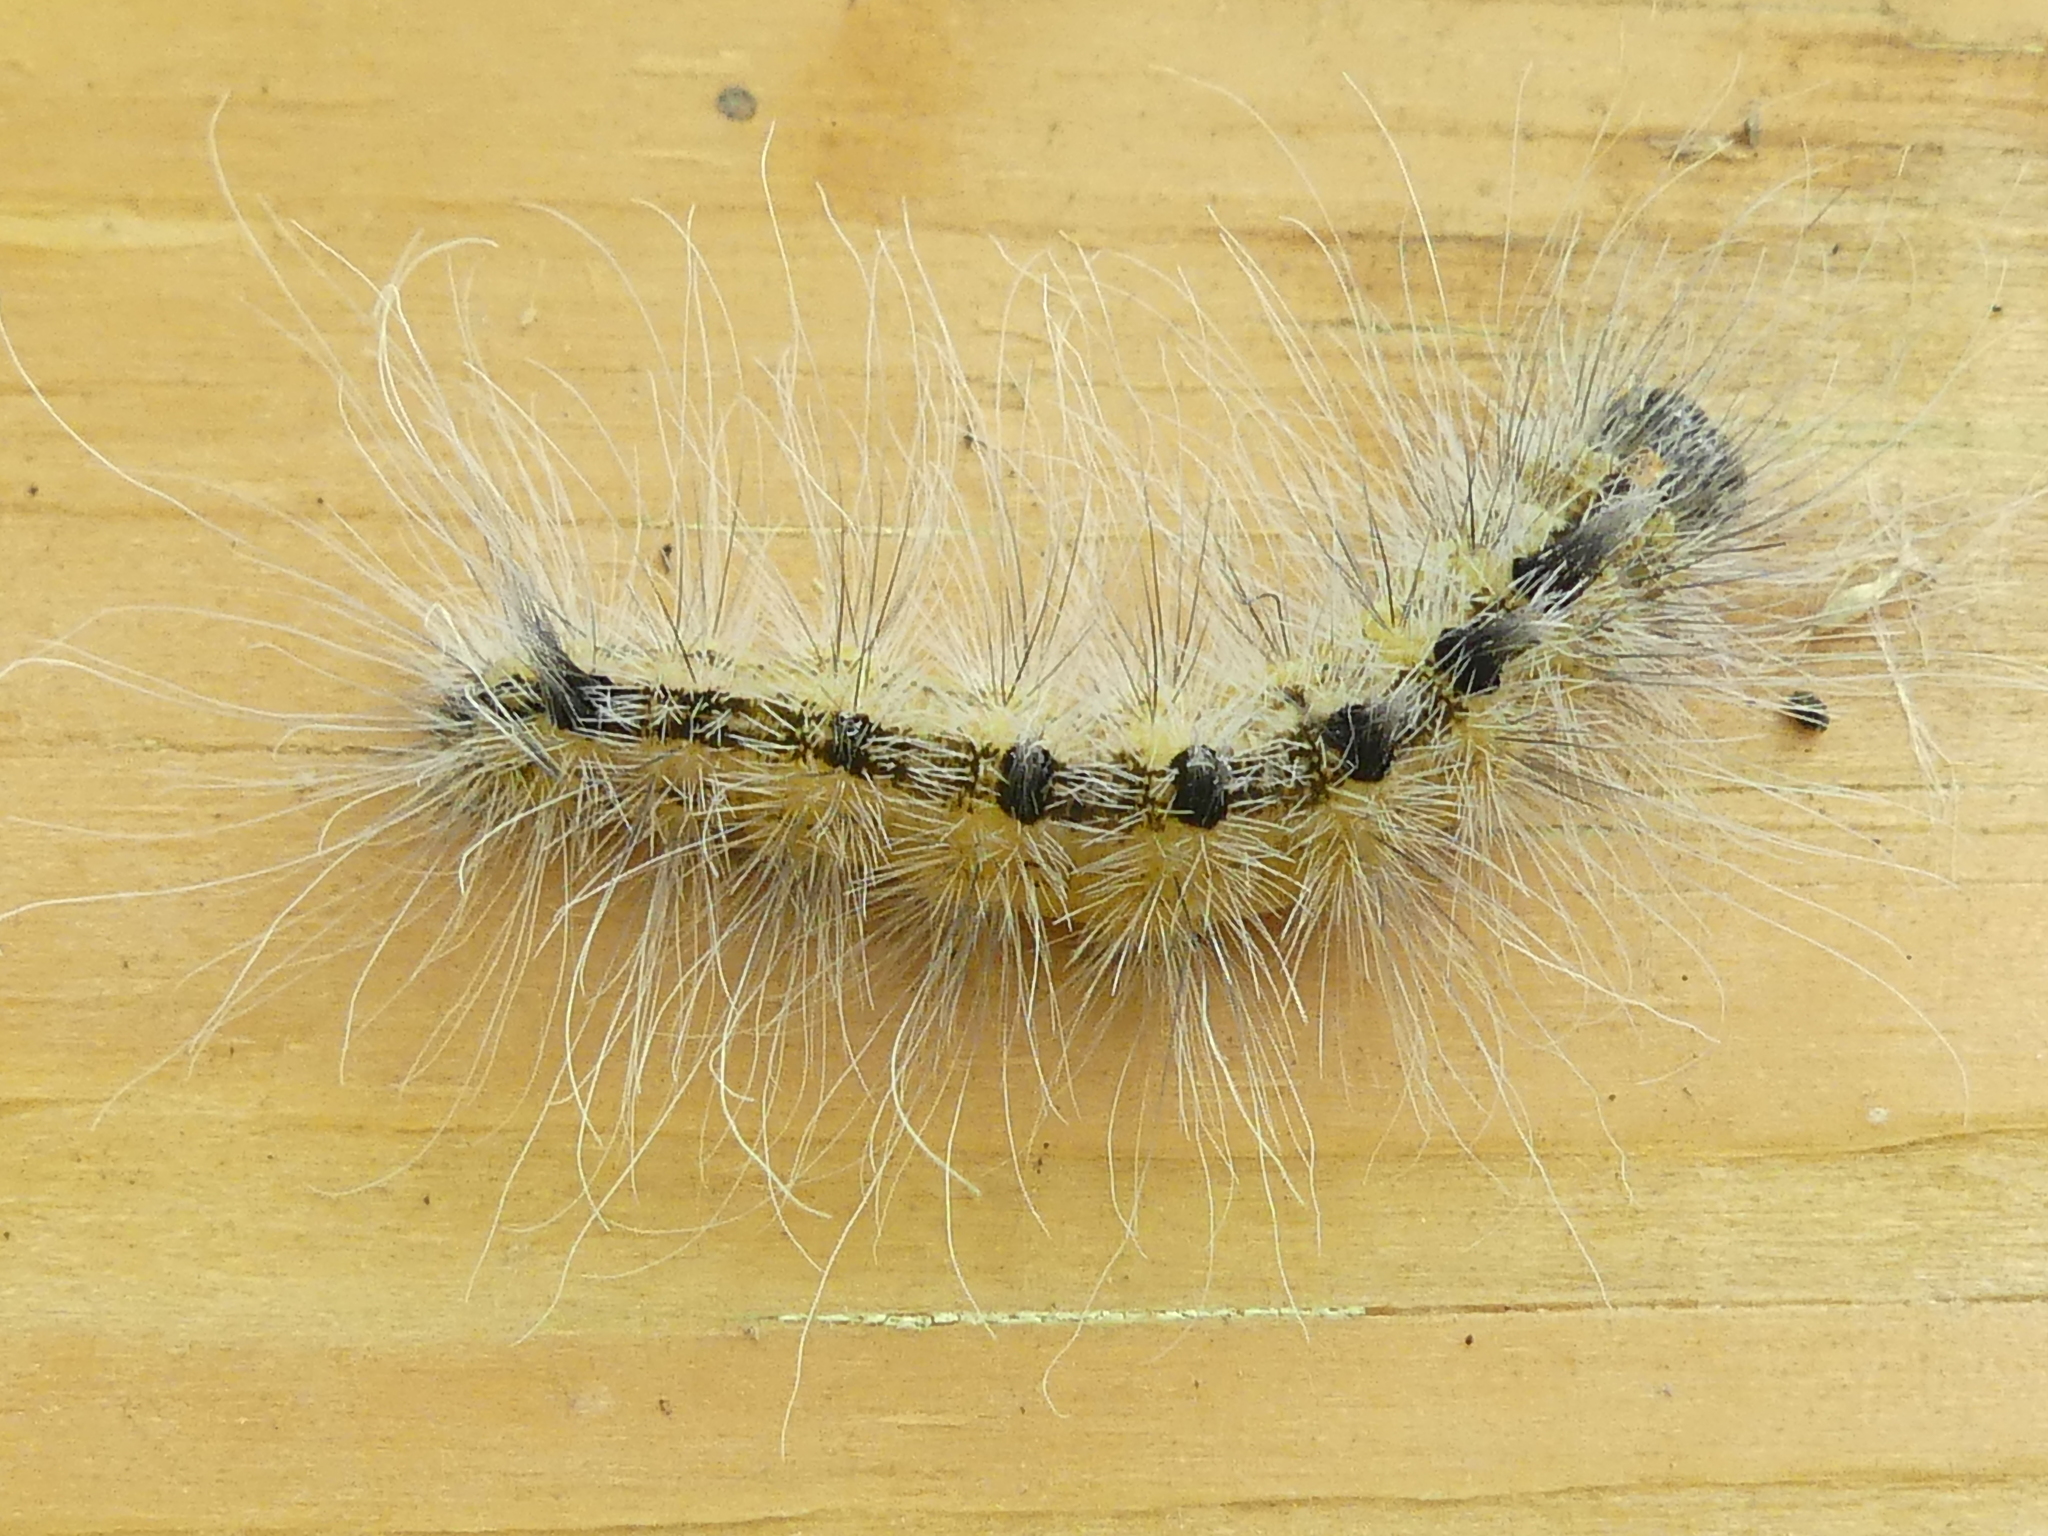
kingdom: Animalia
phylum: Arthropoda
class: Insecta
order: Lepidoptera
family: Noctuidae
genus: Acronicta
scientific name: Acronicta rubricoma
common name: Hackberry dagger
